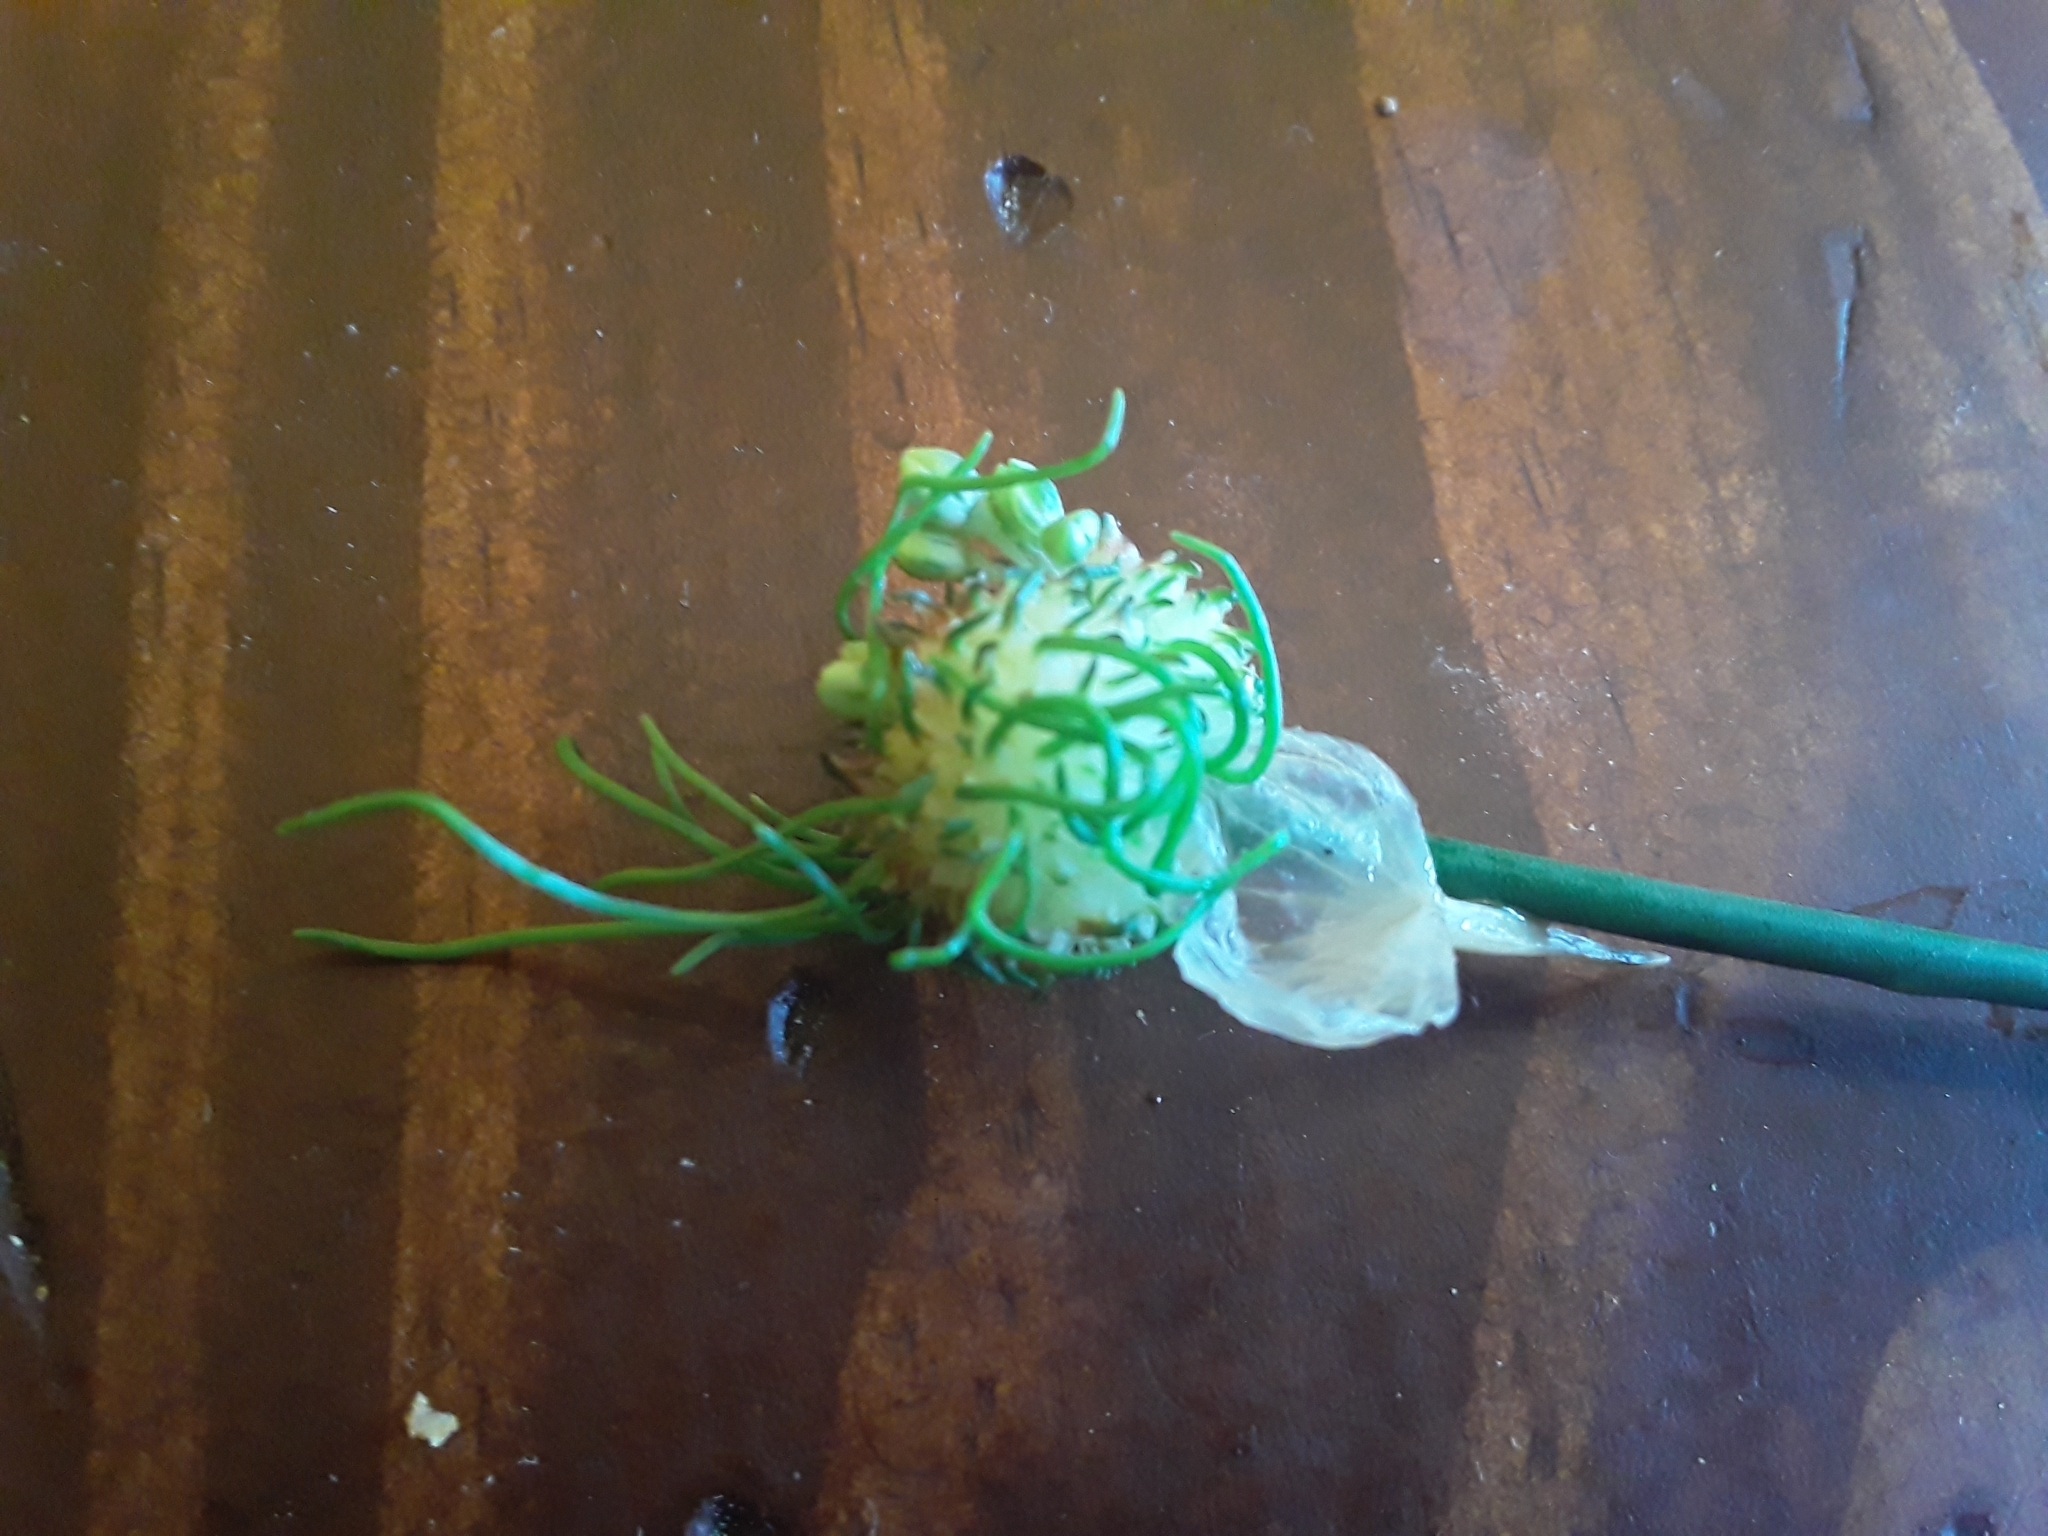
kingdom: Plantae
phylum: Tracheophyta
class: Liliopsida
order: Asparagales
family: Amaryllidaceae
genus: Allium
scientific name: Allium vineale
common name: Crow garlic
